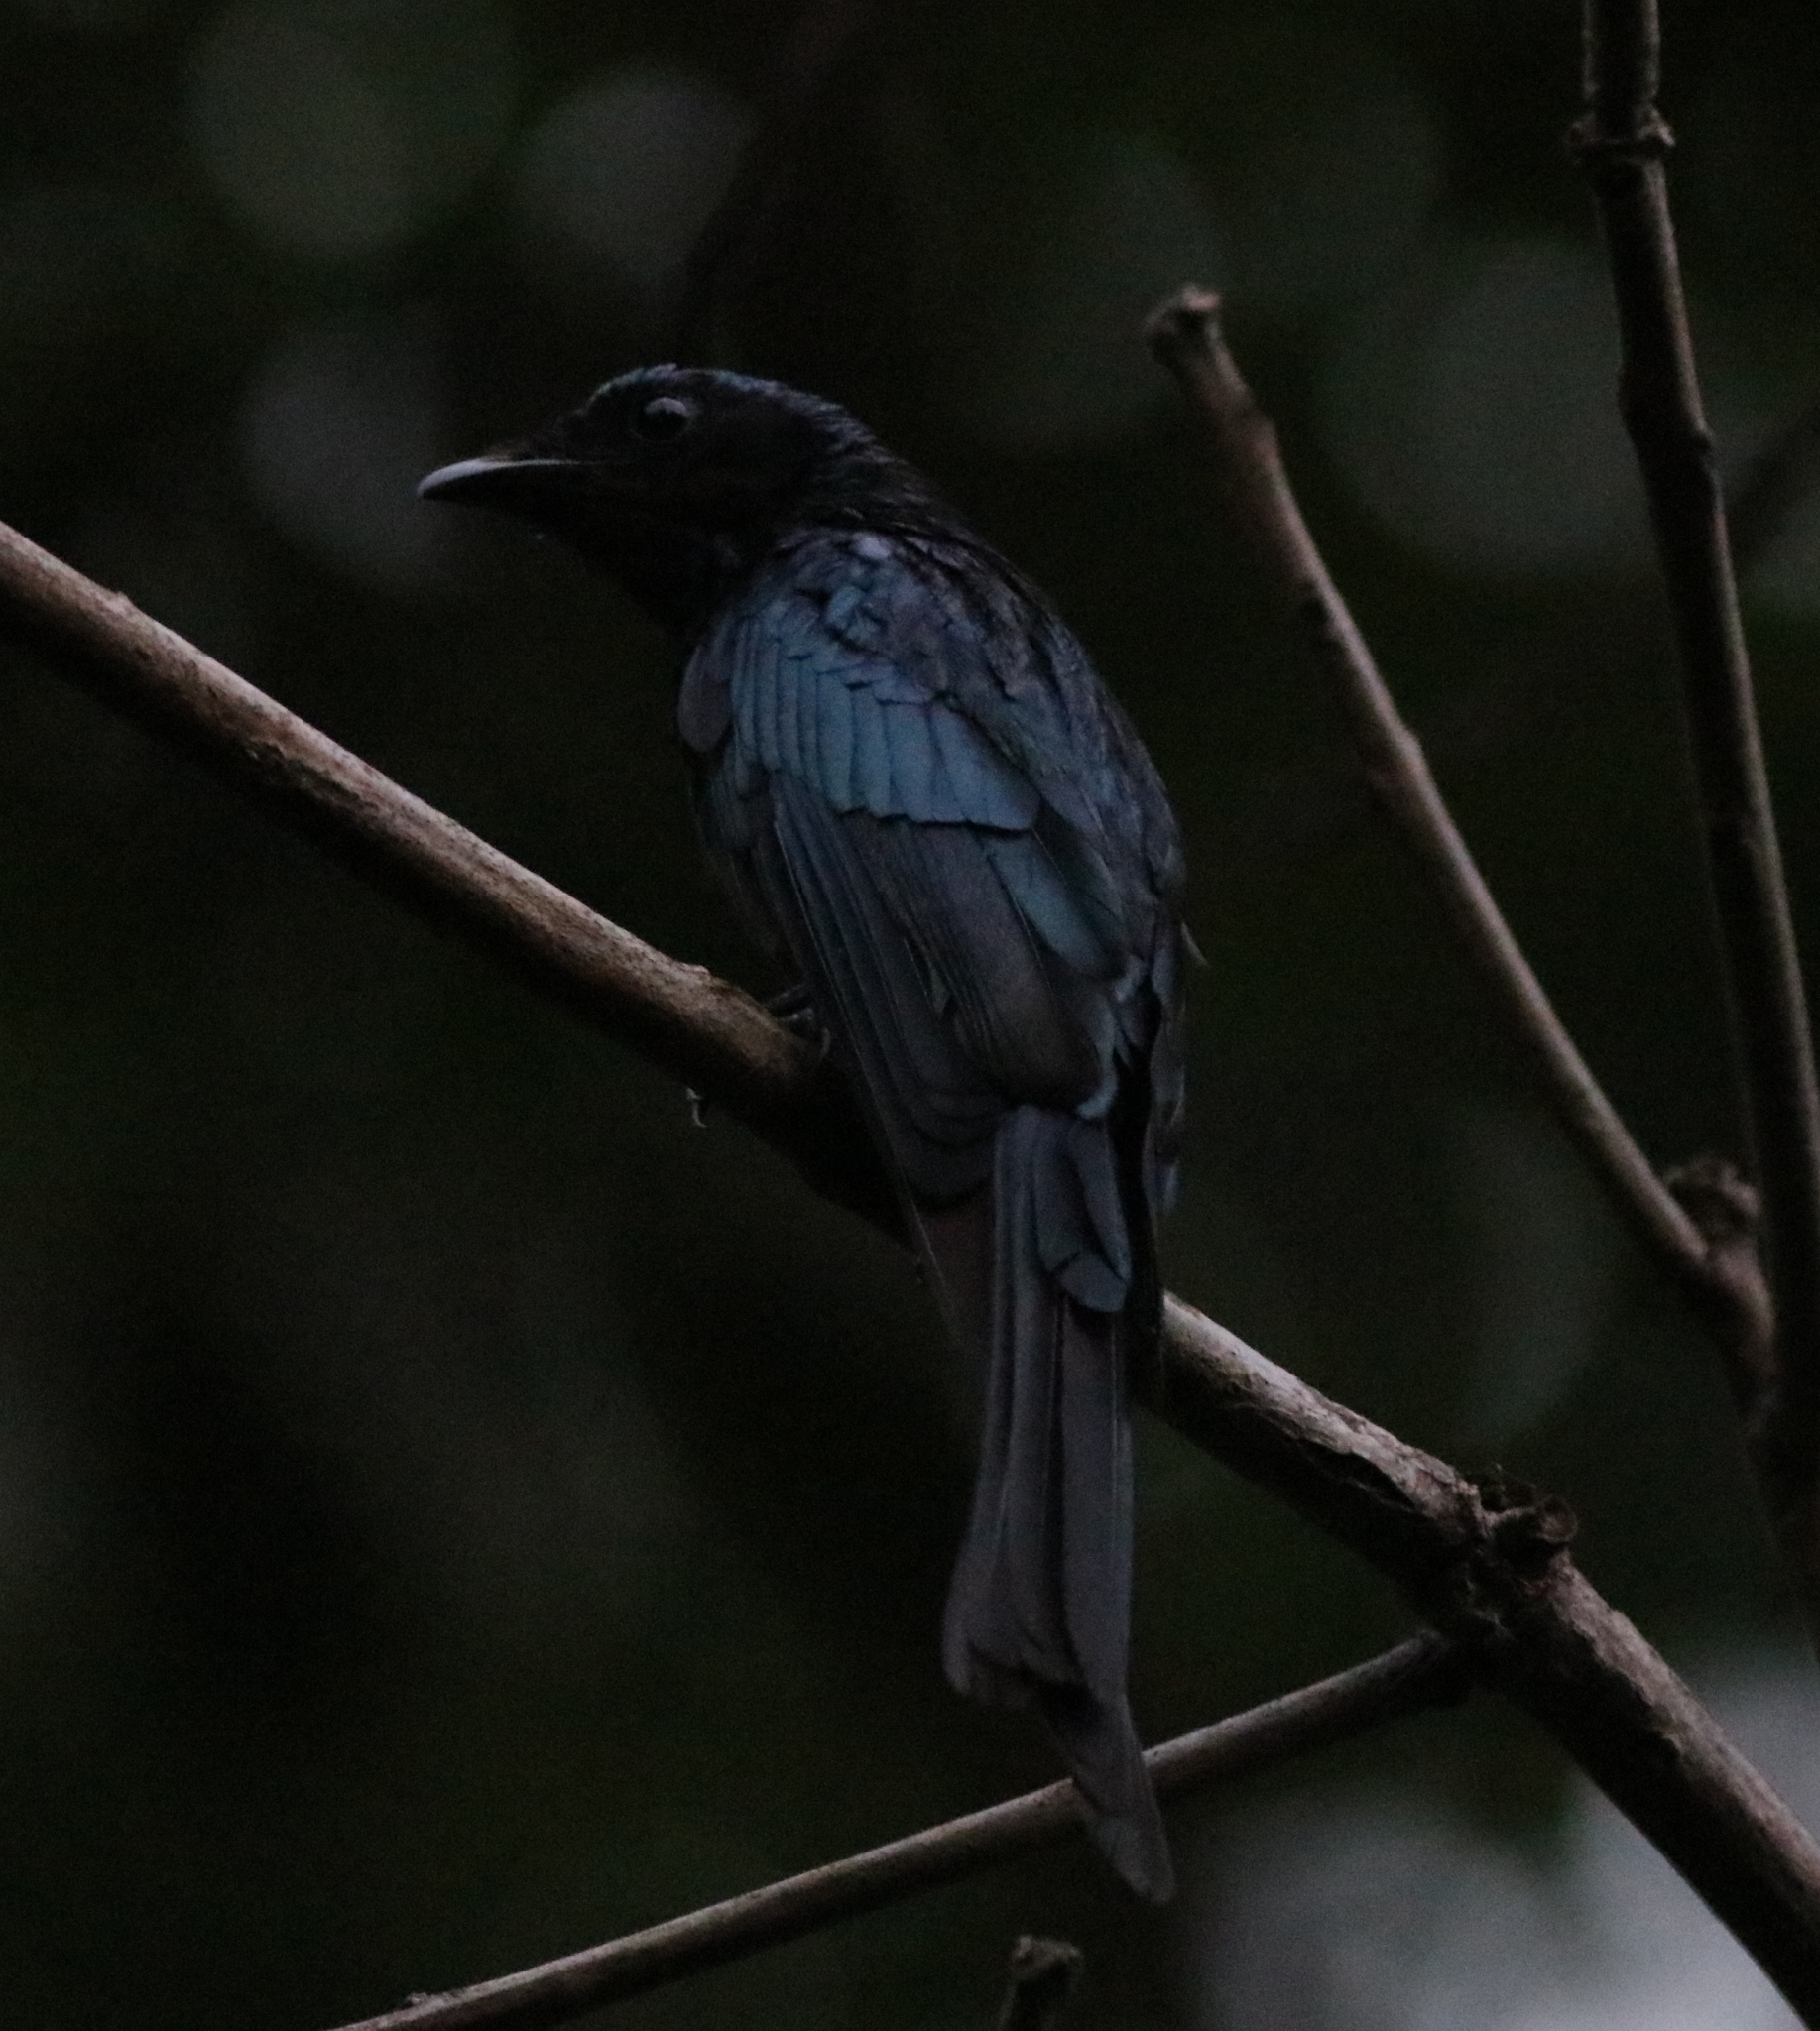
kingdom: Animalia
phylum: Chordata
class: Aves
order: Passeriformes
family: Dicruridae
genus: Dicrurus
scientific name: Dicrurus aeneus
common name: Bronzed drongo
